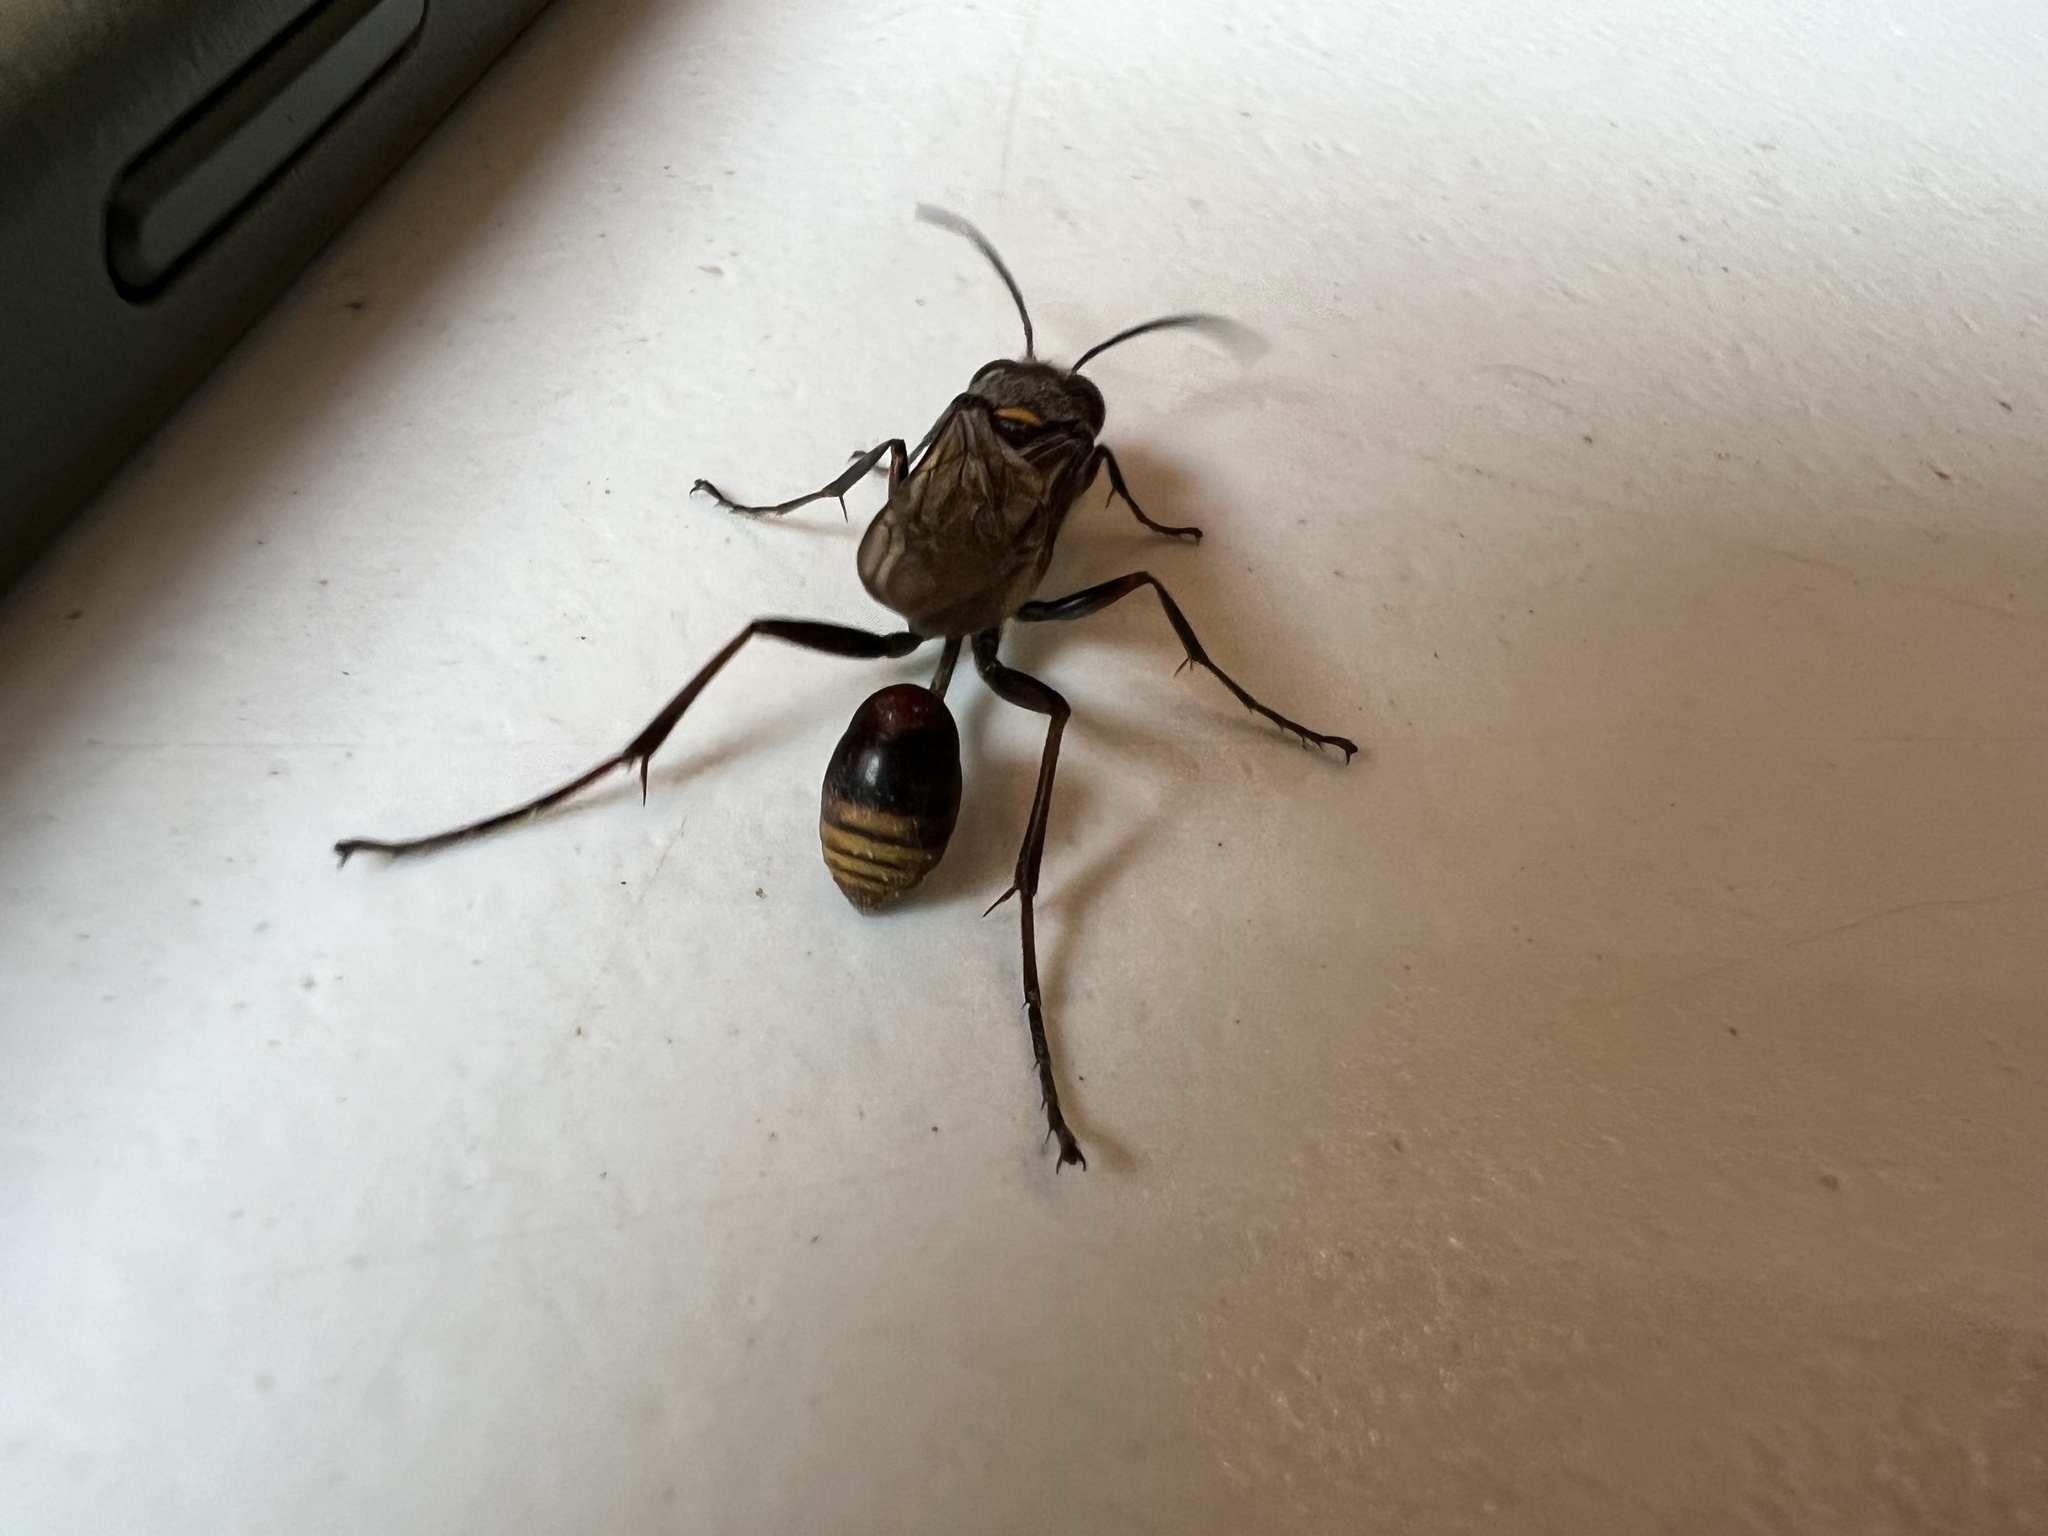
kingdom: Animalia
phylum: Arthropoda
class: Insecta
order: Hymenoptera
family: Sphecidae
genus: Sceliphron
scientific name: Sceliphron deforme
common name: Pelopèe
